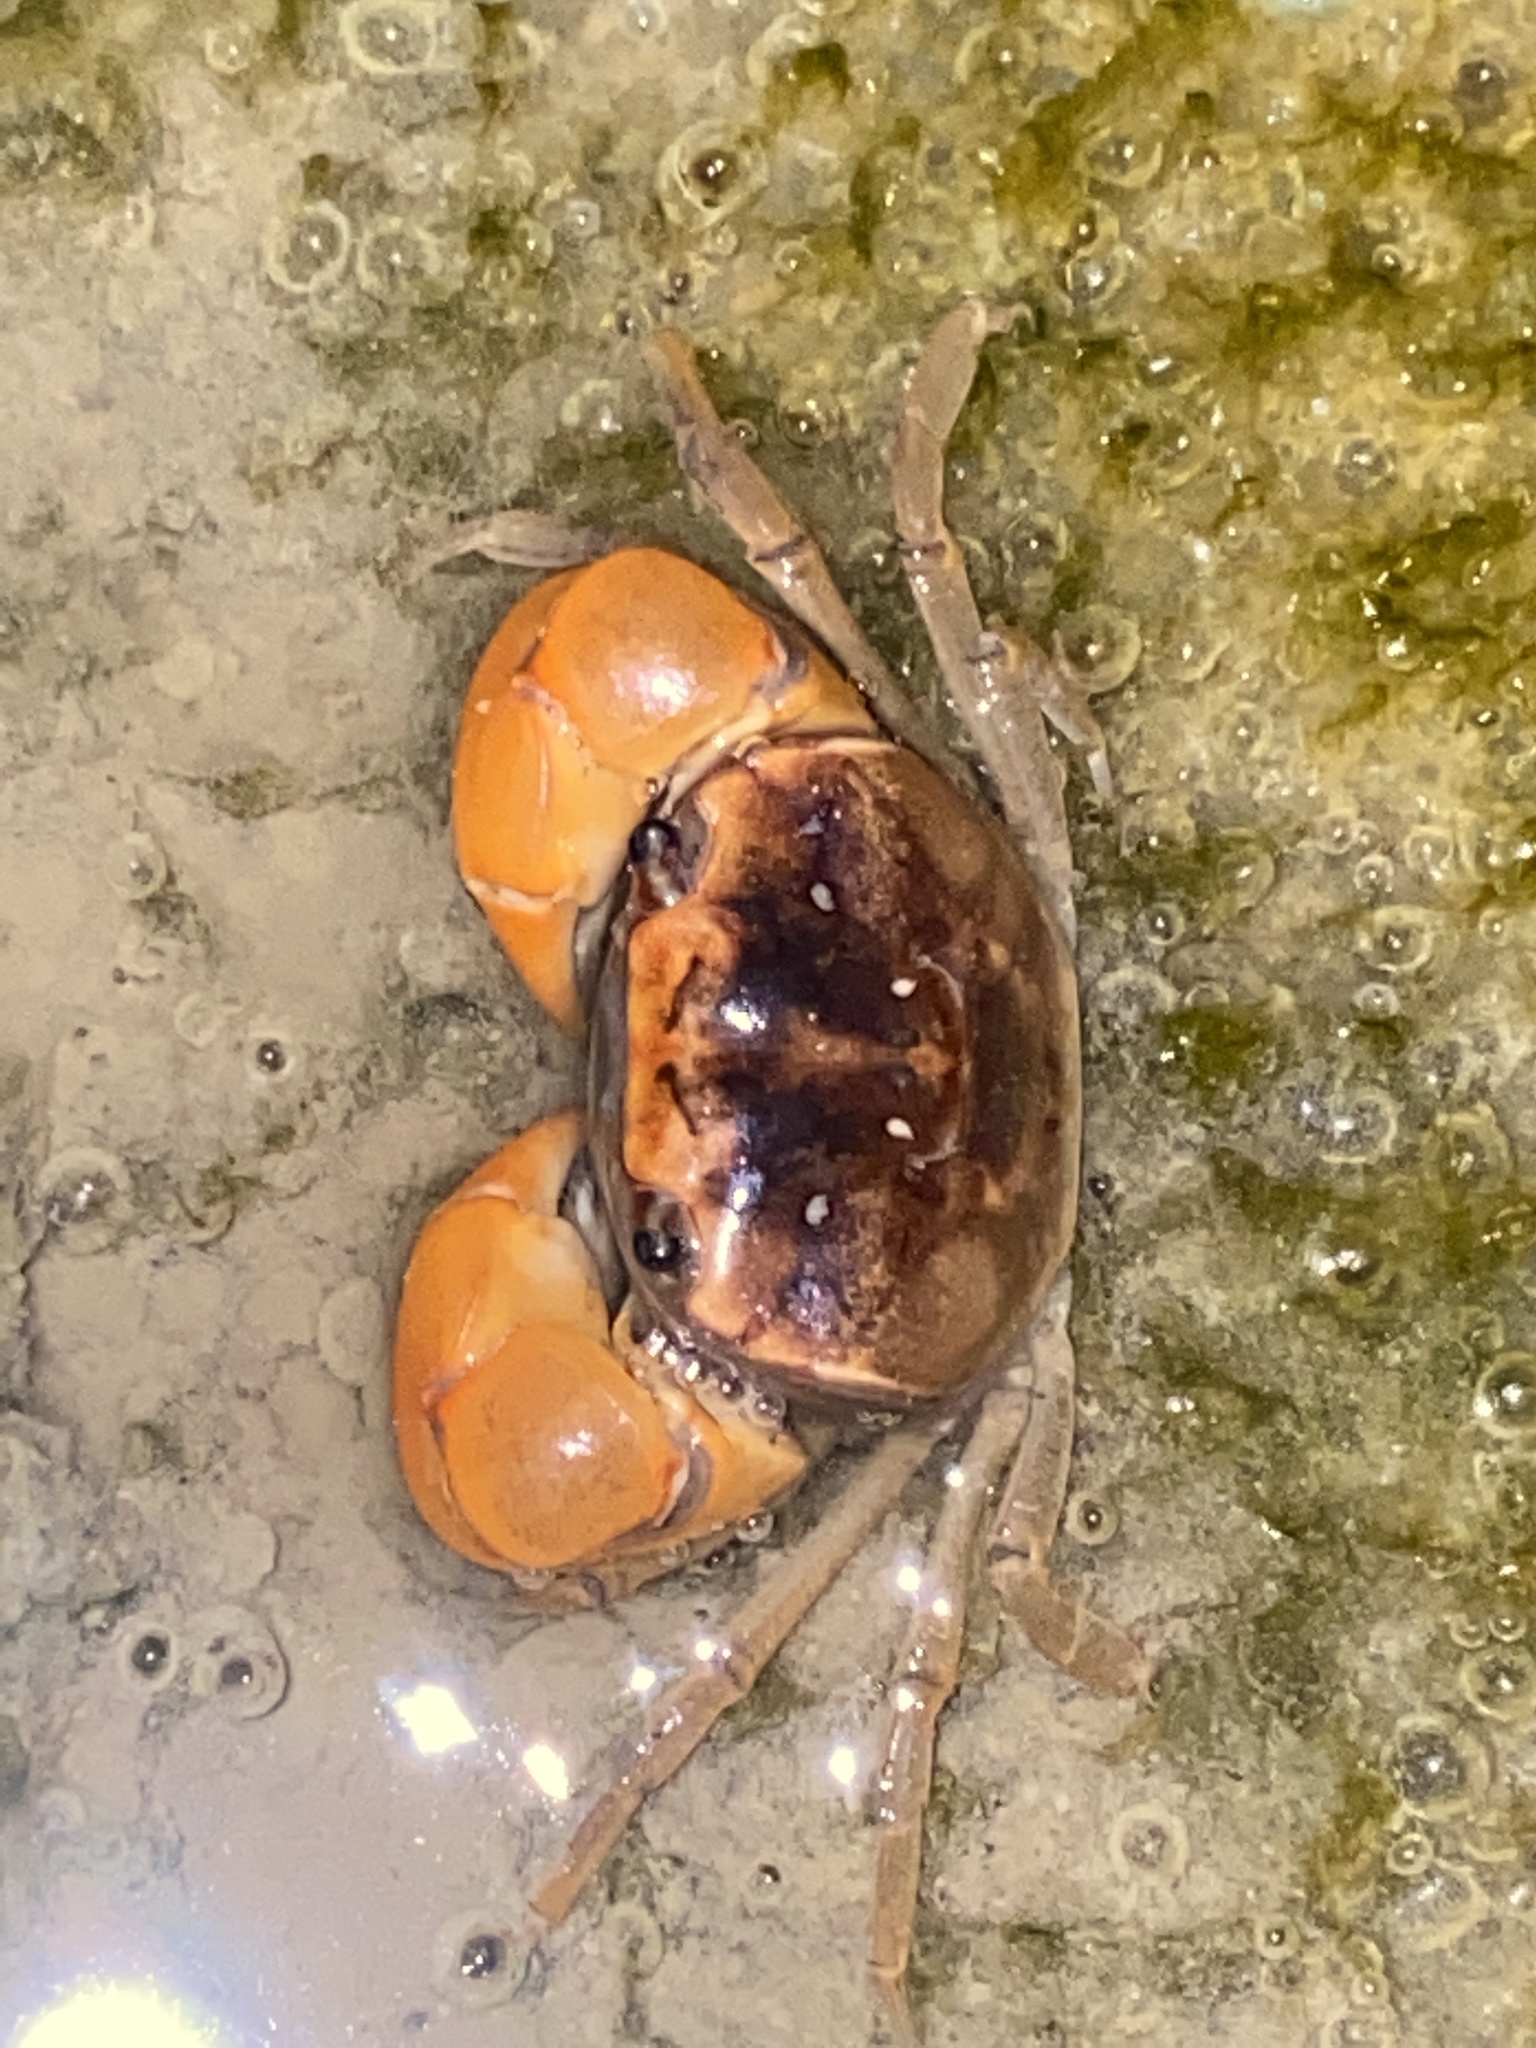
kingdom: Animalia
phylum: Arthropoda
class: Malacostraca
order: Decapoda
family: Varunidae
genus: Helograpsus
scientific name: Helograpsus haswellianus
